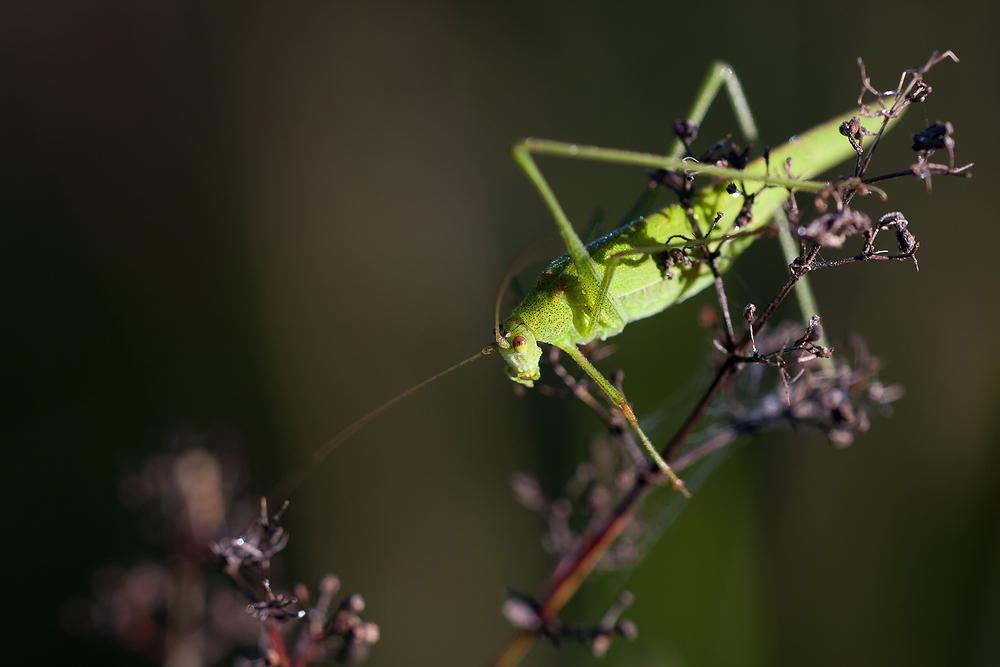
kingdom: Animalia
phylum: Arthropoda
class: Insecta
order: Orthoptera
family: Tettigoniidae
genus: Phaneroptera
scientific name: Phaneroptera falcata
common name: Sickle-bearing bush-cricket
